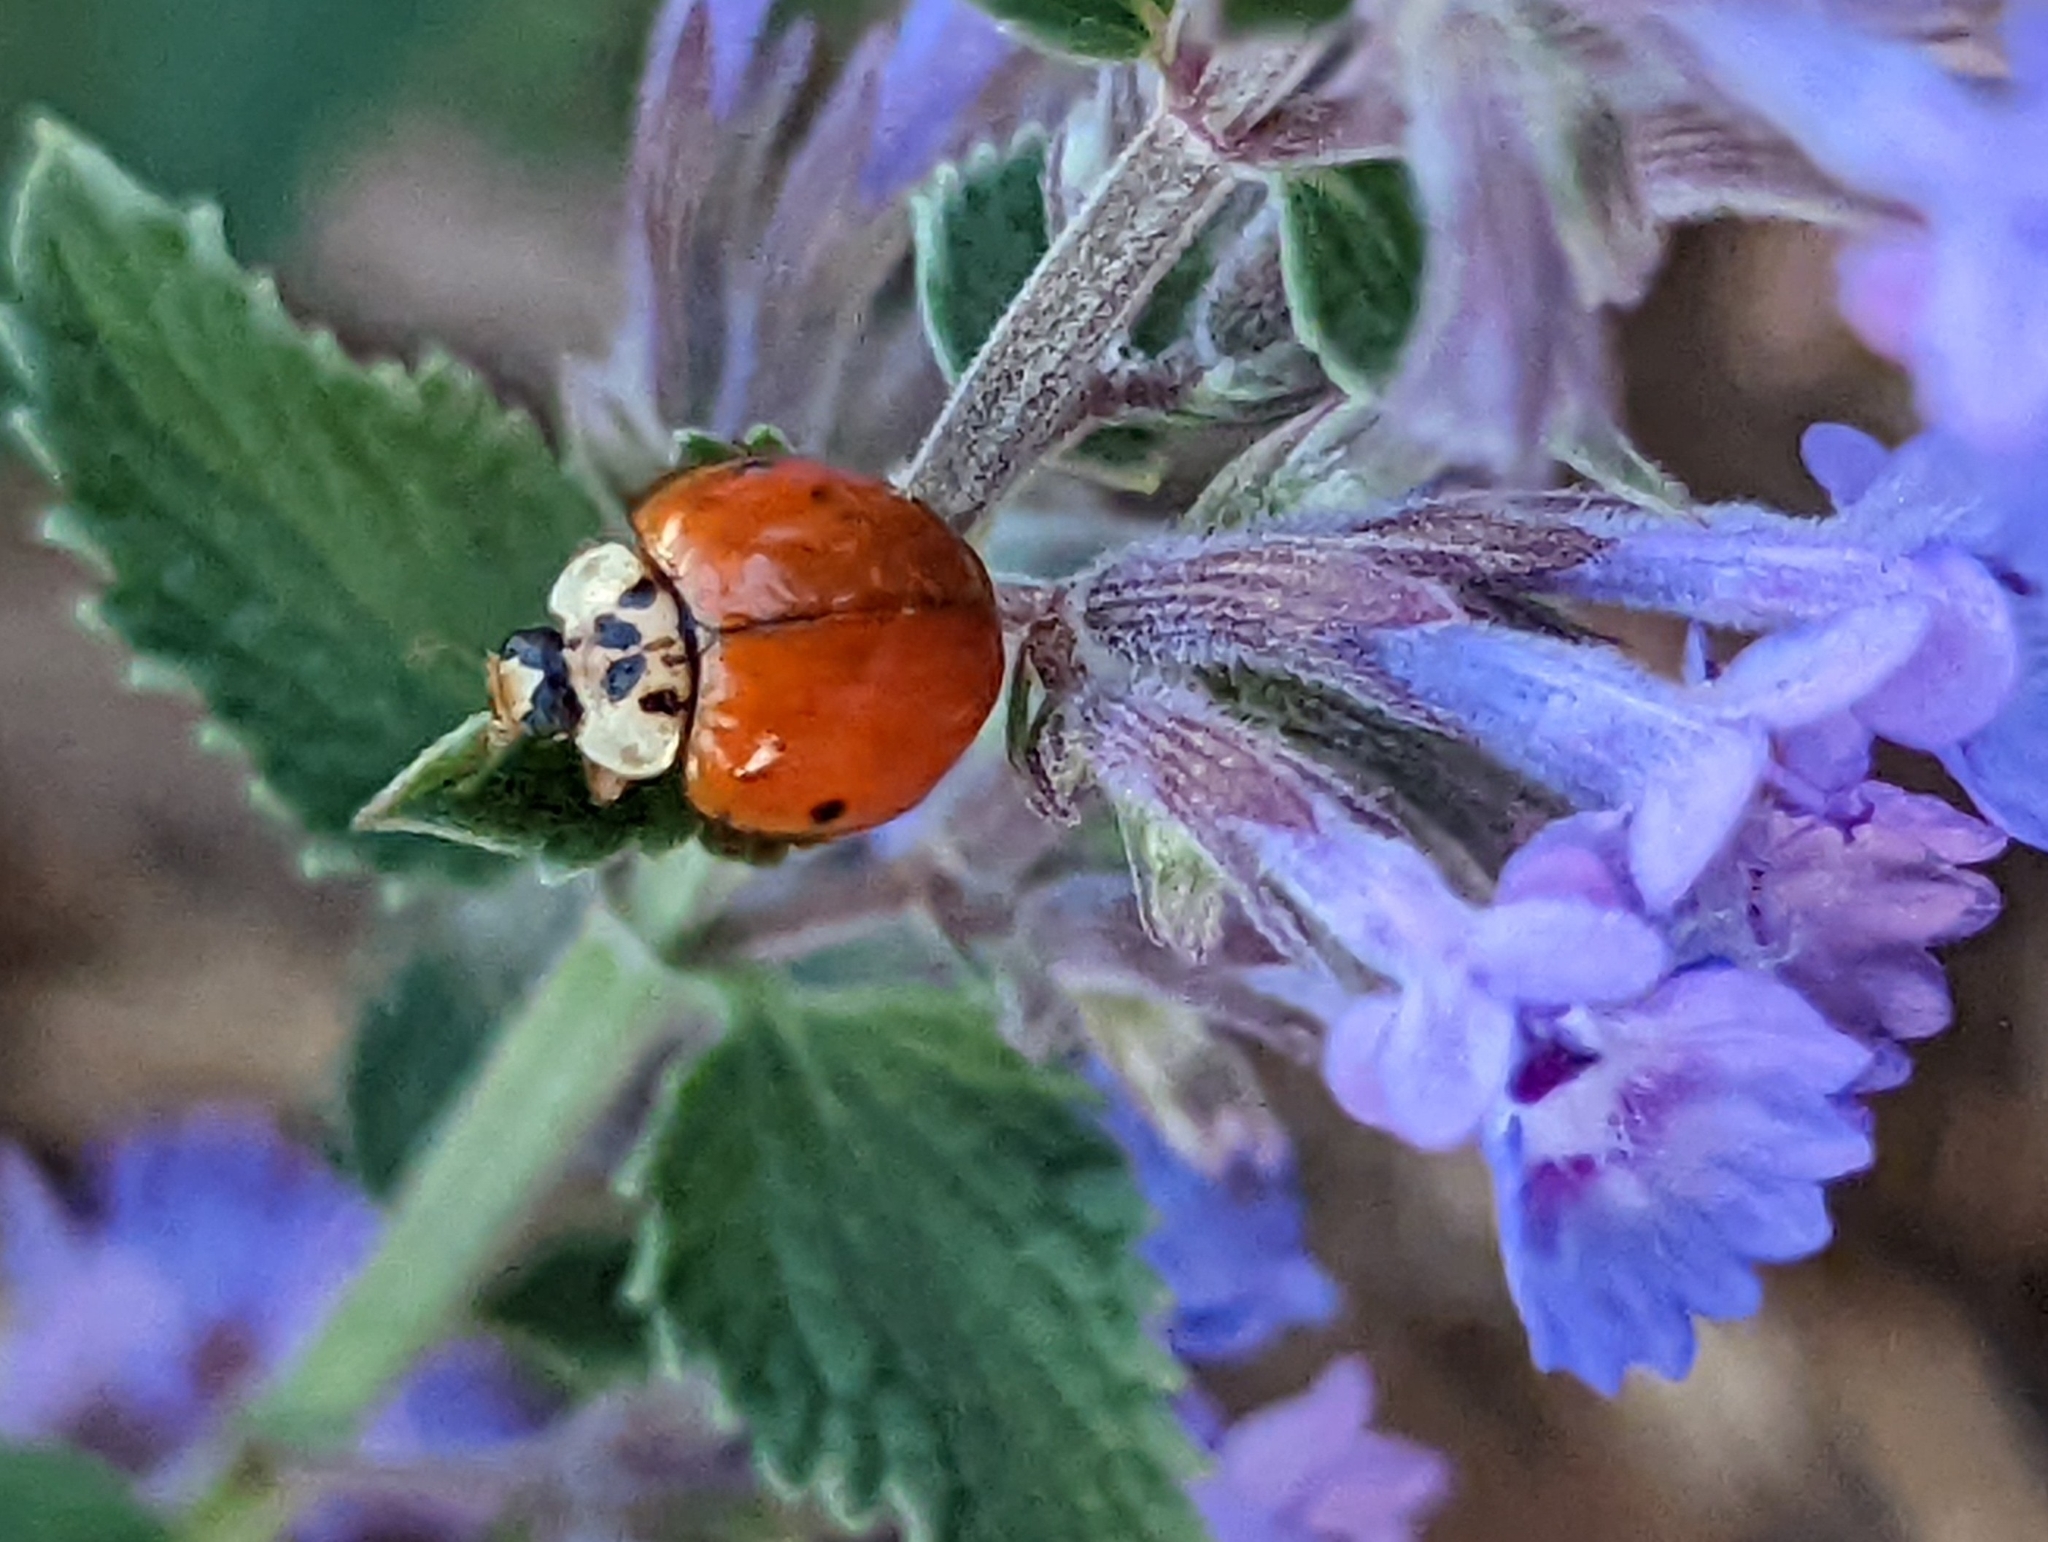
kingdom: Animalia
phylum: Arthropoda
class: Insecta
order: Coleoptera
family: Coccinellidae
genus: Harmonia
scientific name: Harmonia axyridis
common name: Harlequin ladybird
